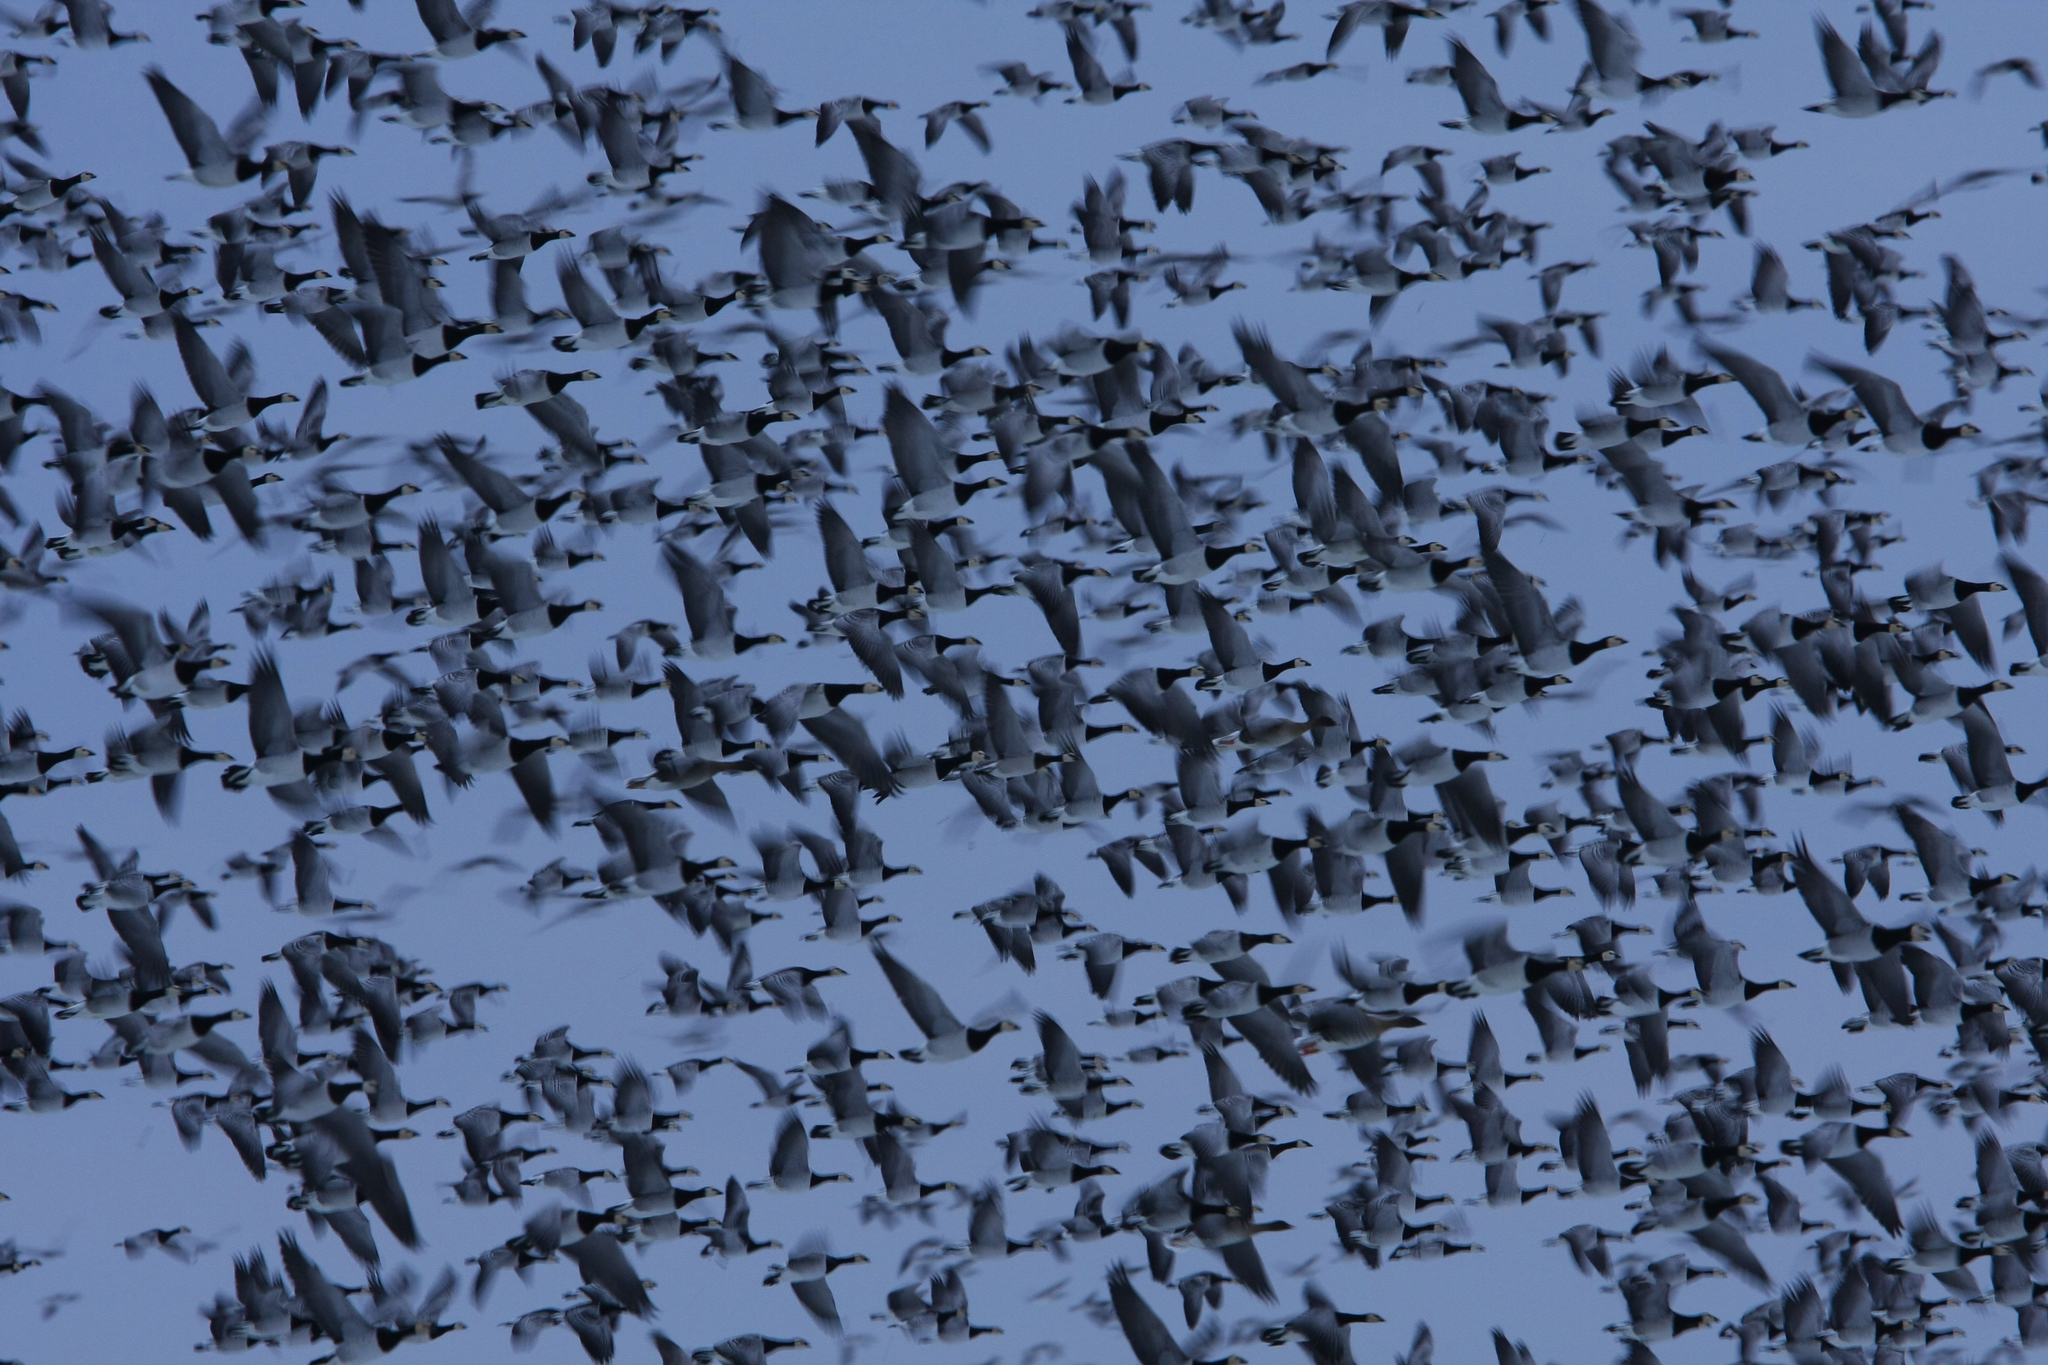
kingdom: Animalia
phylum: Chordata
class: Aves
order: Anseriformes
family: Anatidae
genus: Branta
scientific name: Branta leucopsis
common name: Barnacle goose
